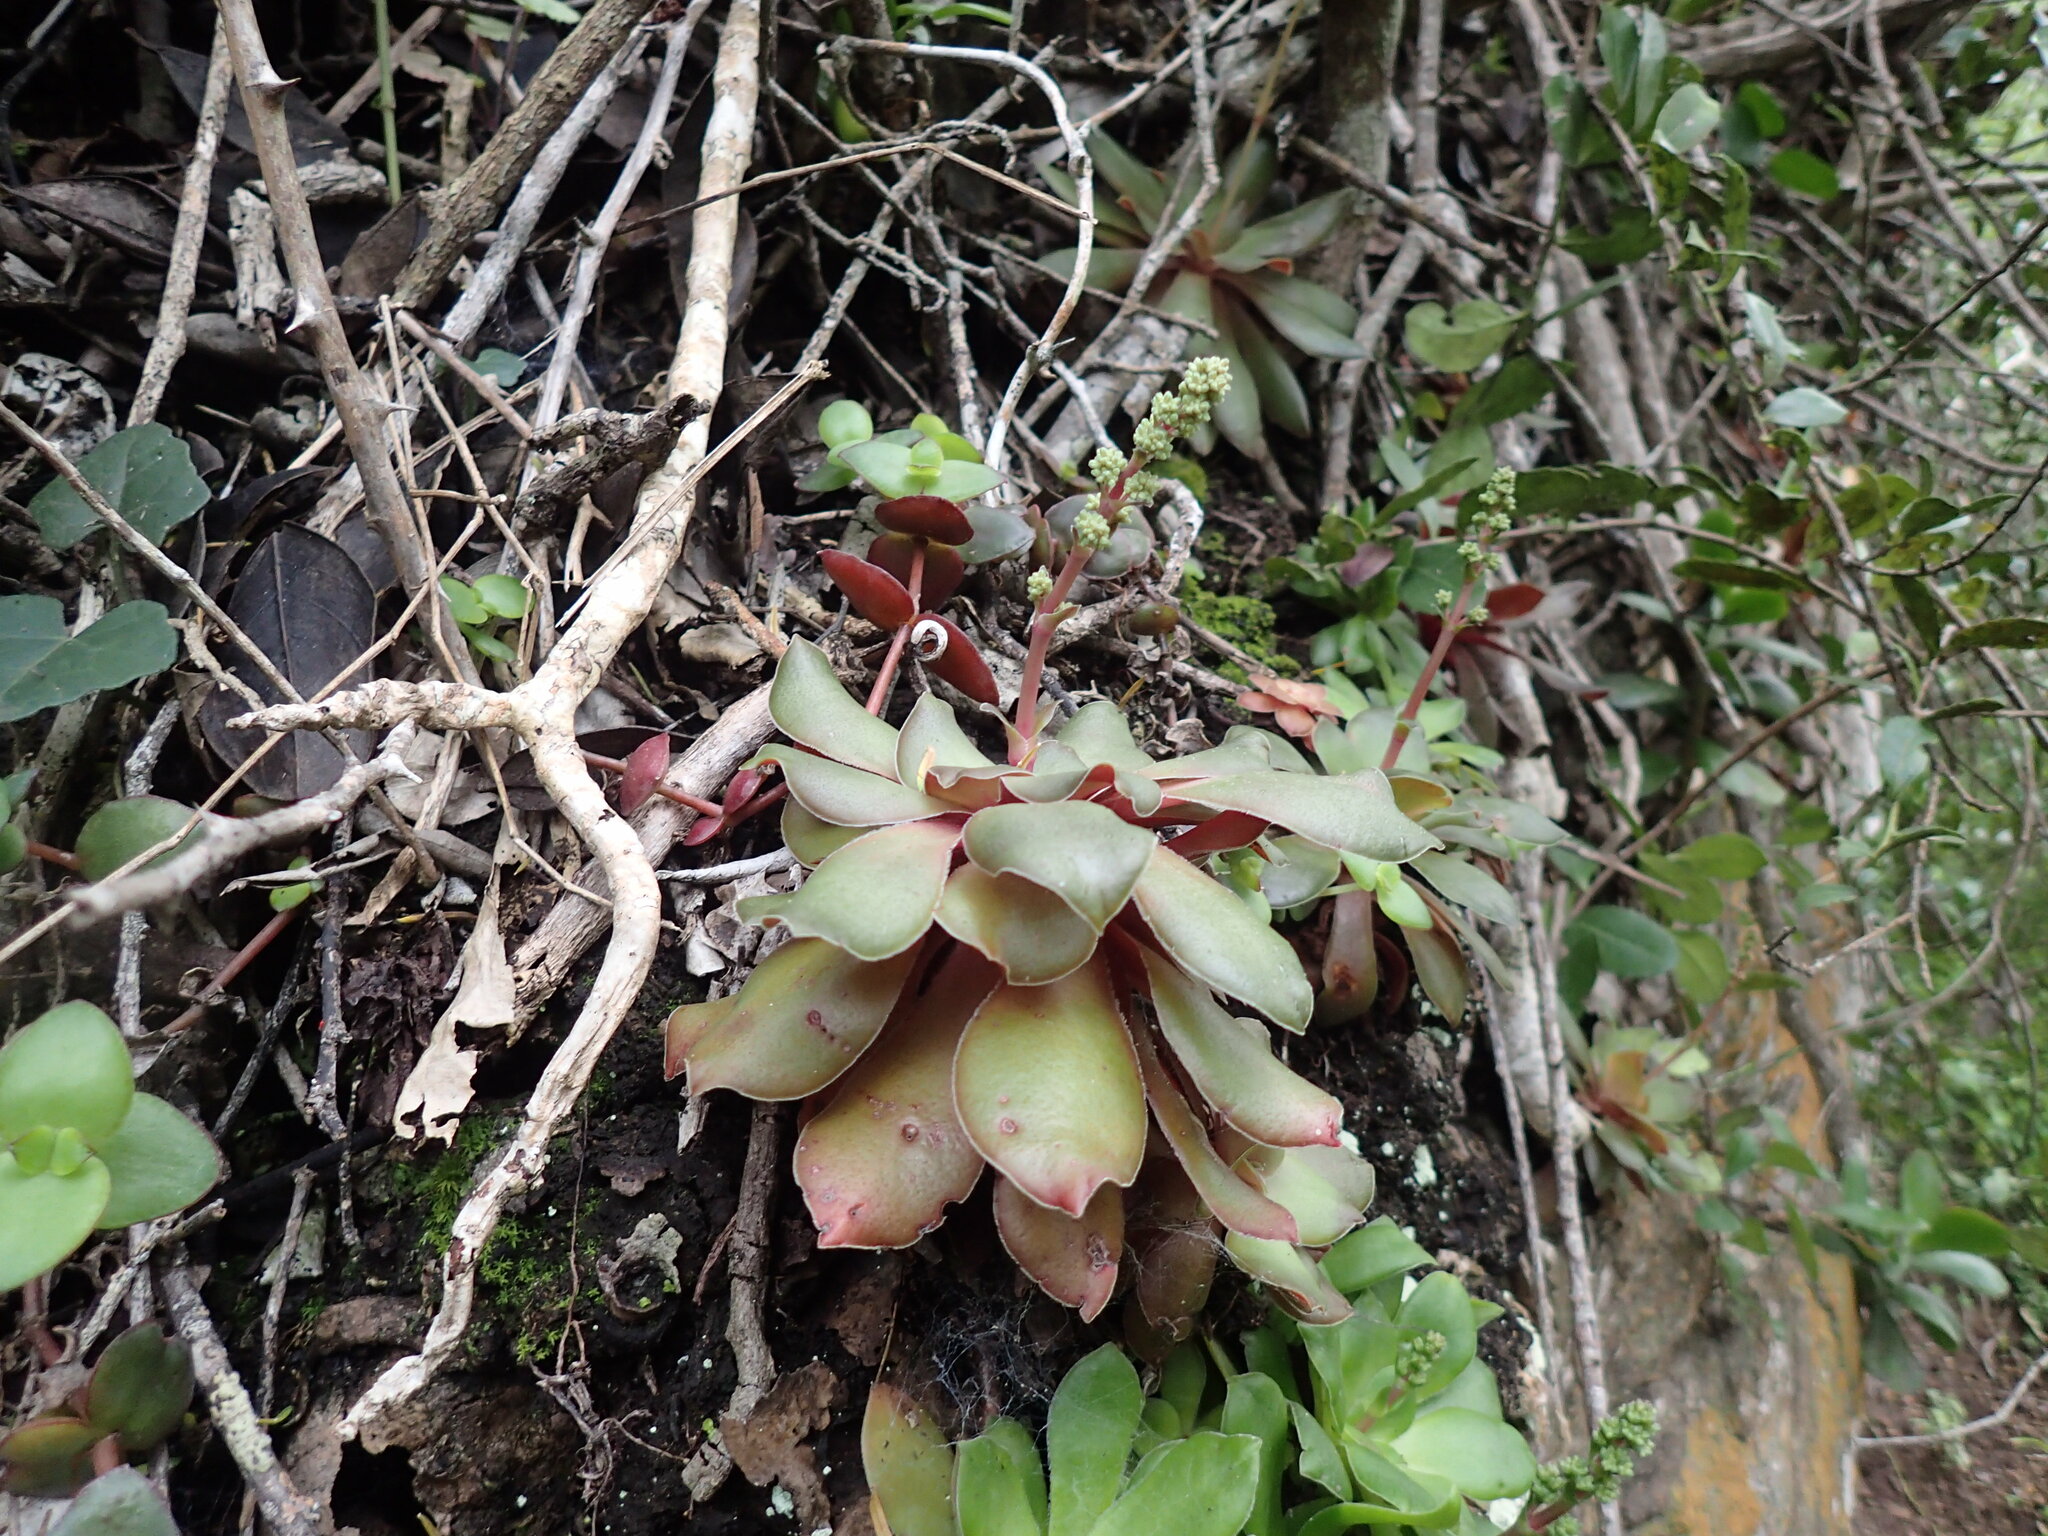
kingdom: Plantae
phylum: Tracheophyta
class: Magnoliopsida
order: Saxifragales
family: Crassulaceae
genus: Crassula
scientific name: Crassula orbicularis
